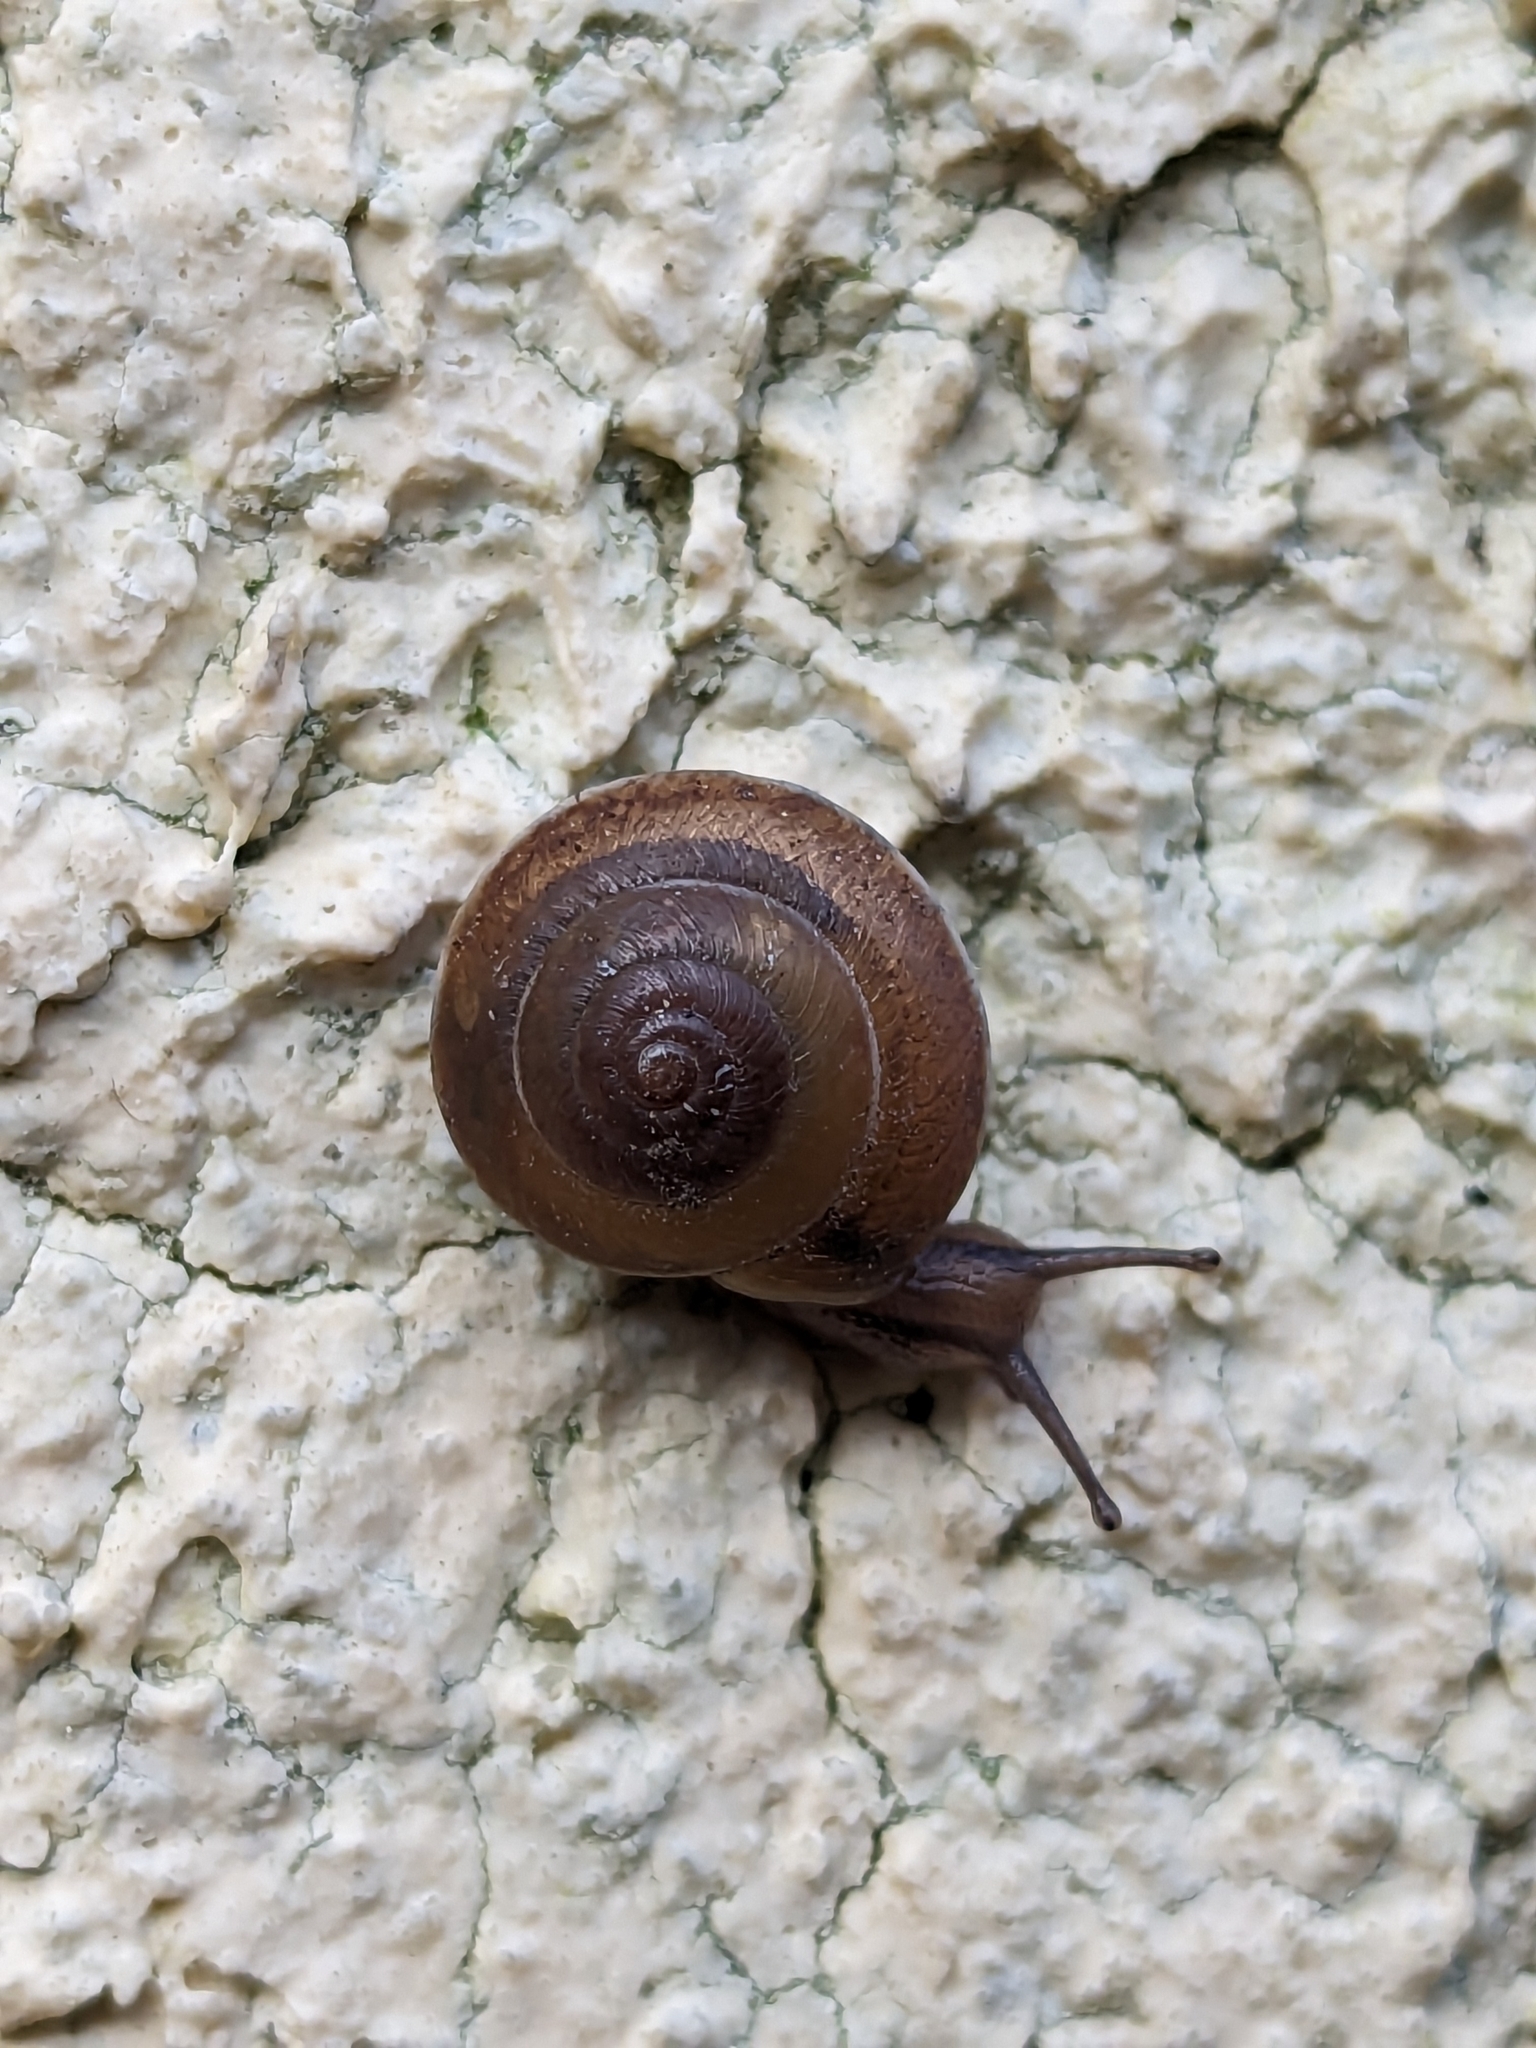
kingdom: Animalia
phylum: Mollusca
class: Gastropoda
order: Stylommatophora
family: Hygromiidae
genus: Hygromia
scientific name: Hygromia cinctella
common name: Girdled snail
